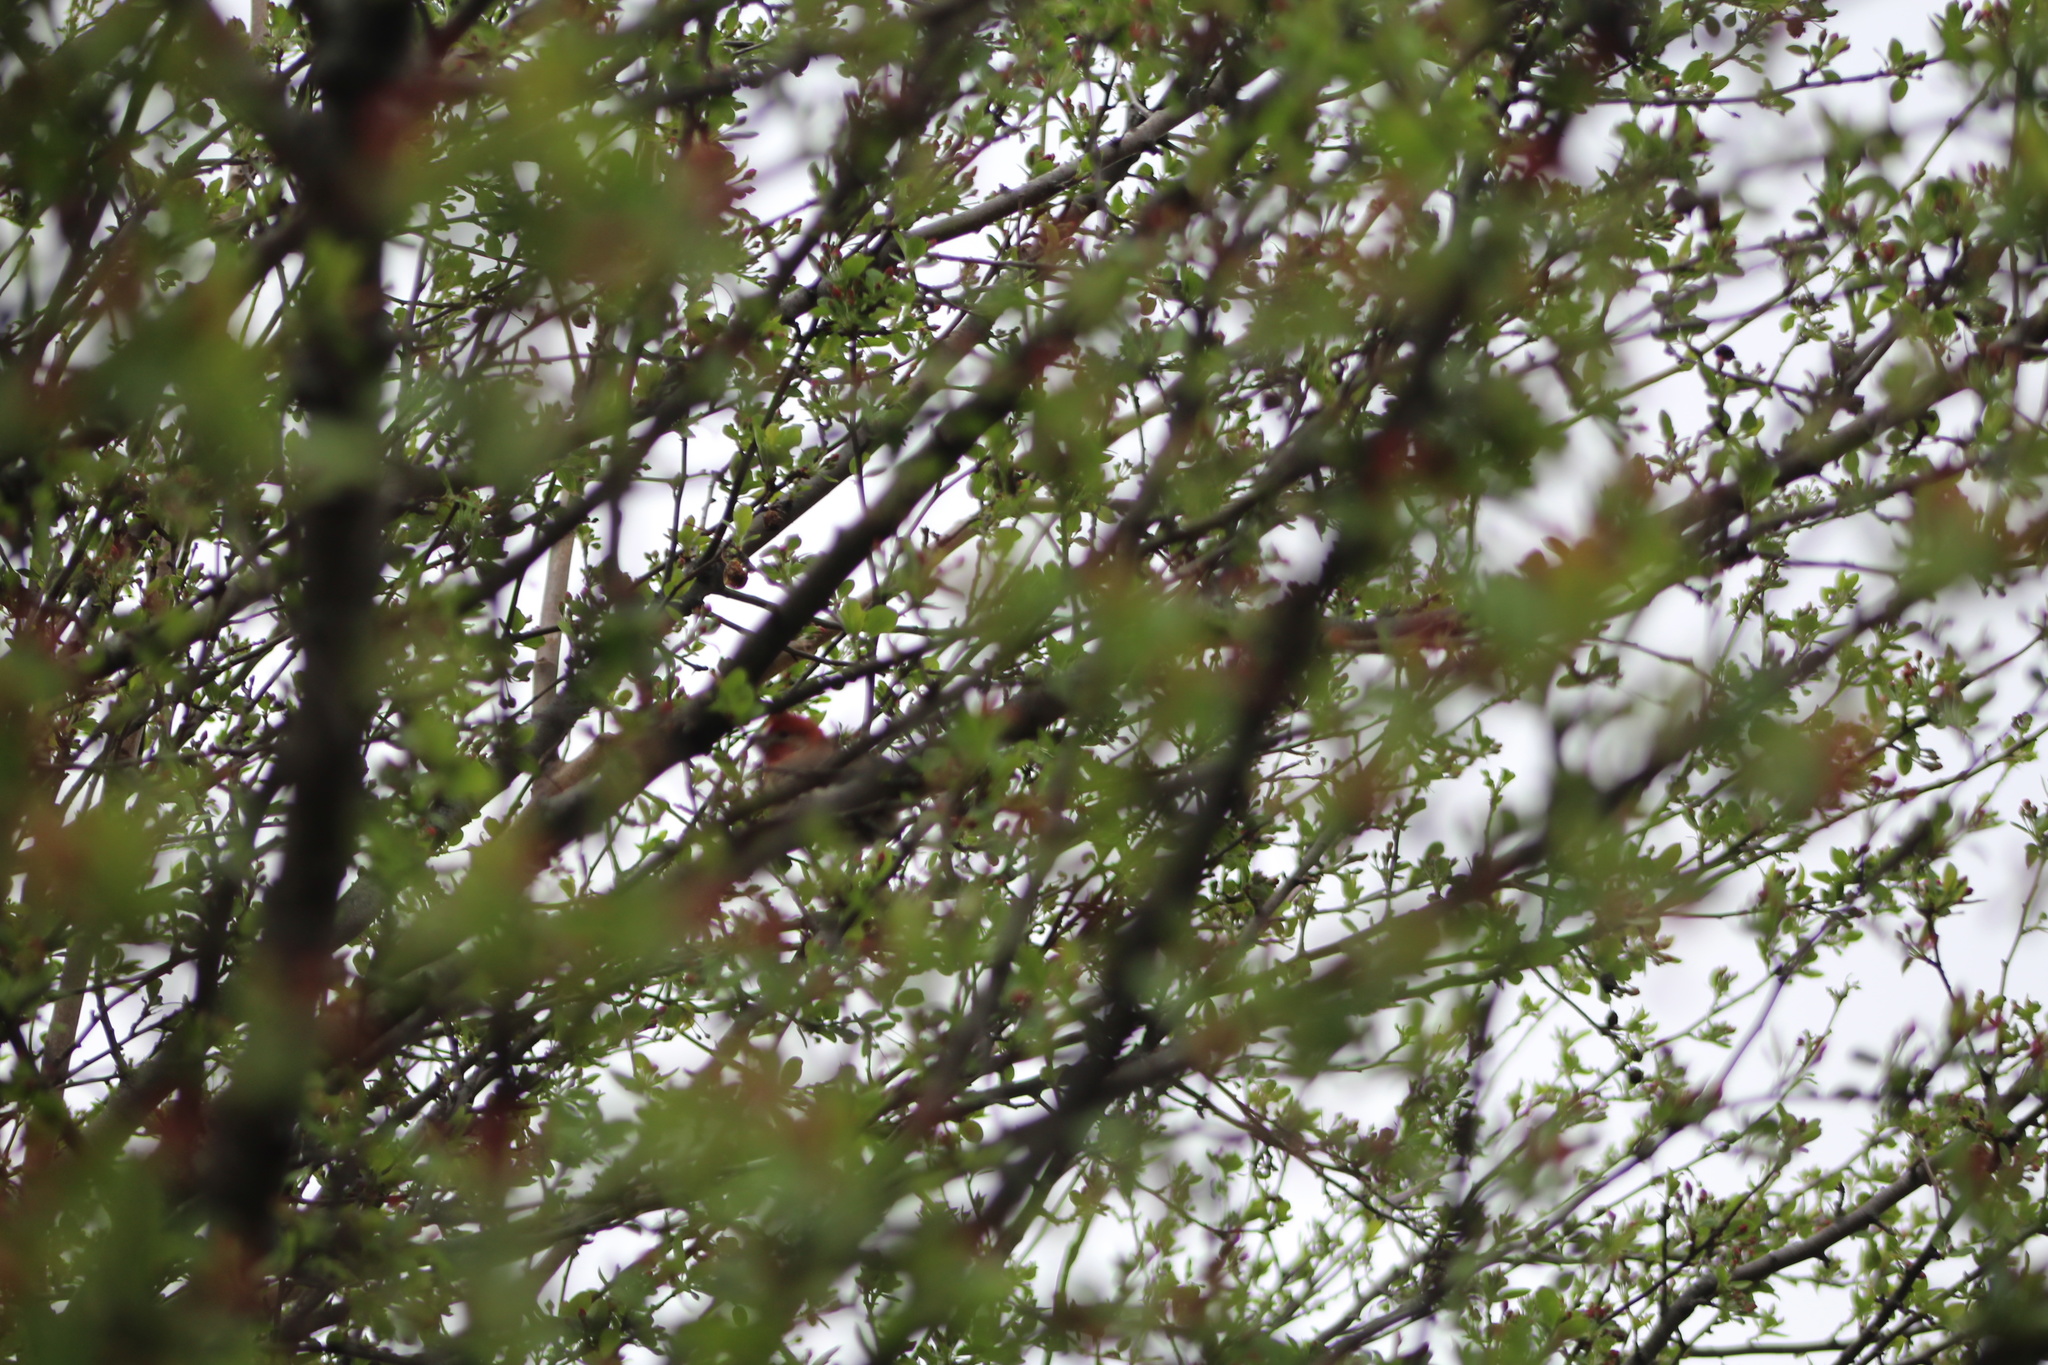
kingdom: Animalia
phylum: Chordata
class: Aves
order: Passeriformes
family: Fringillidae
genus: Haemorhous
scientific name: Haemorhous mexicanus
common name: House finch
